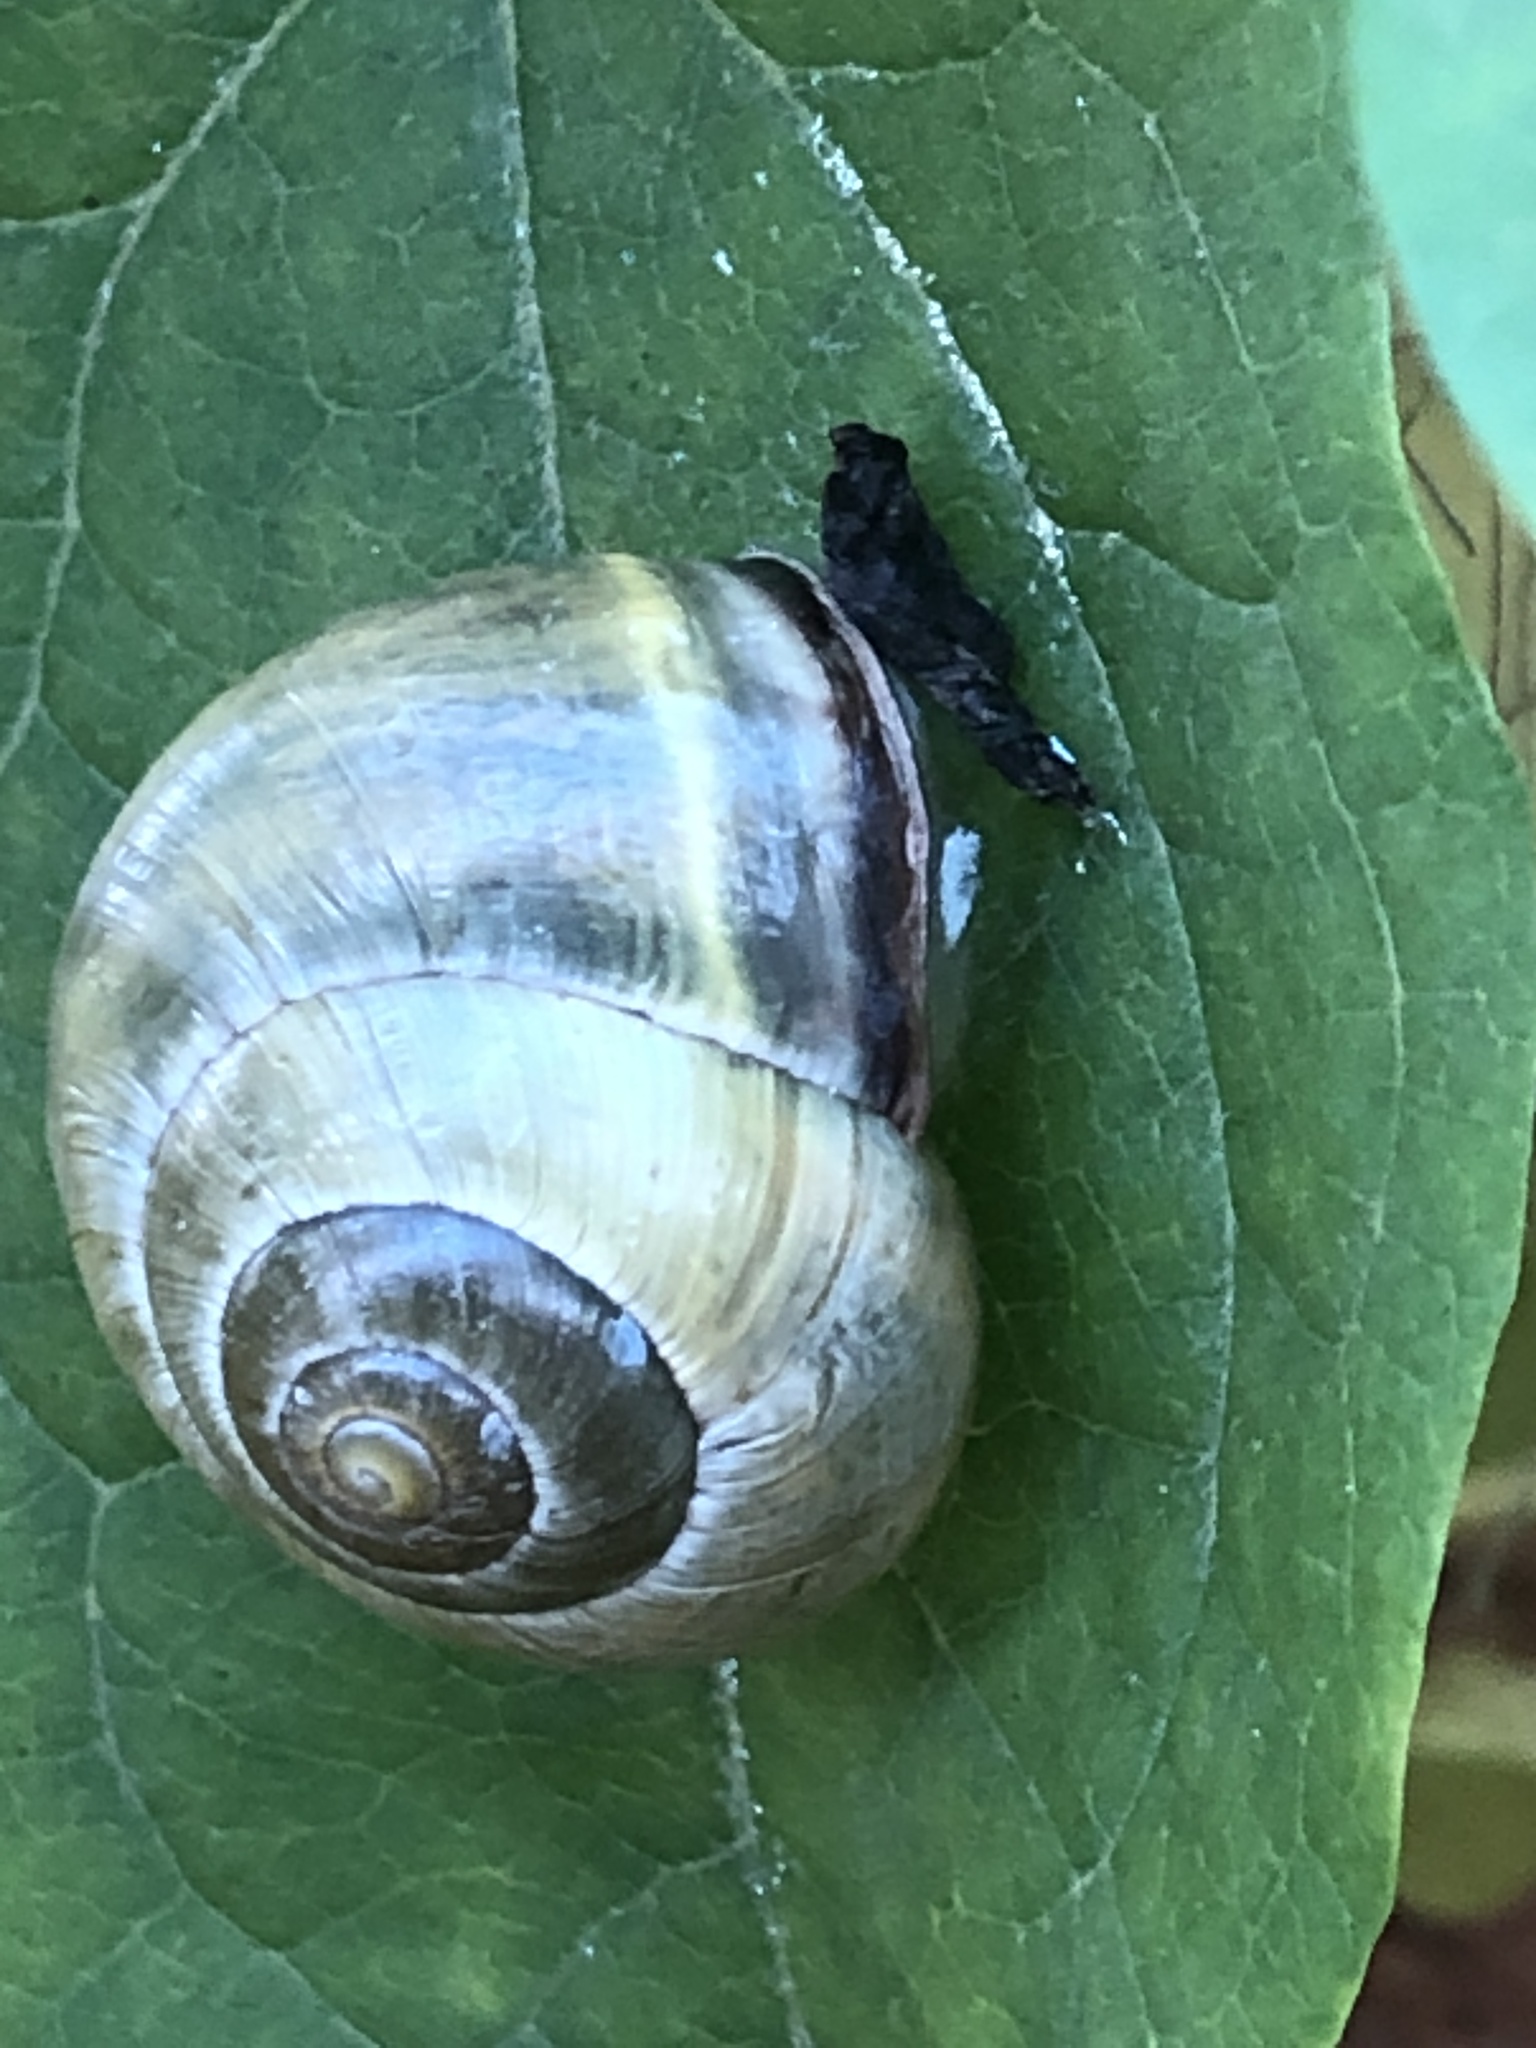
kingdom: Animalia
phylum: Mollusca
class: Gastropoda
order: Stylommatophora
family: Helicidae
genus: Cepaea
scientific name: Cepaea nemoralis
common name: Grovesnail
